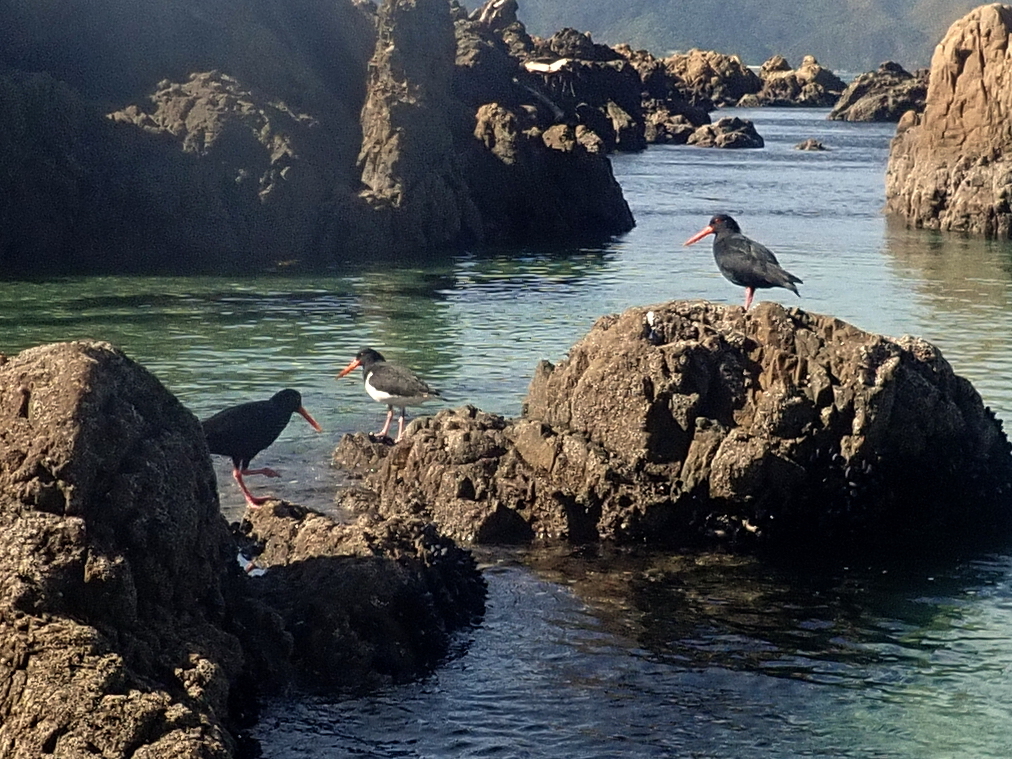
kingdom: Animalia
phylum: Chordata
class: Aves
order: Charadriiformes
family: Haematopodidae
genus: Haematopus
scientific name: Haematopus unicolor
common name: Variable oystercatcher
